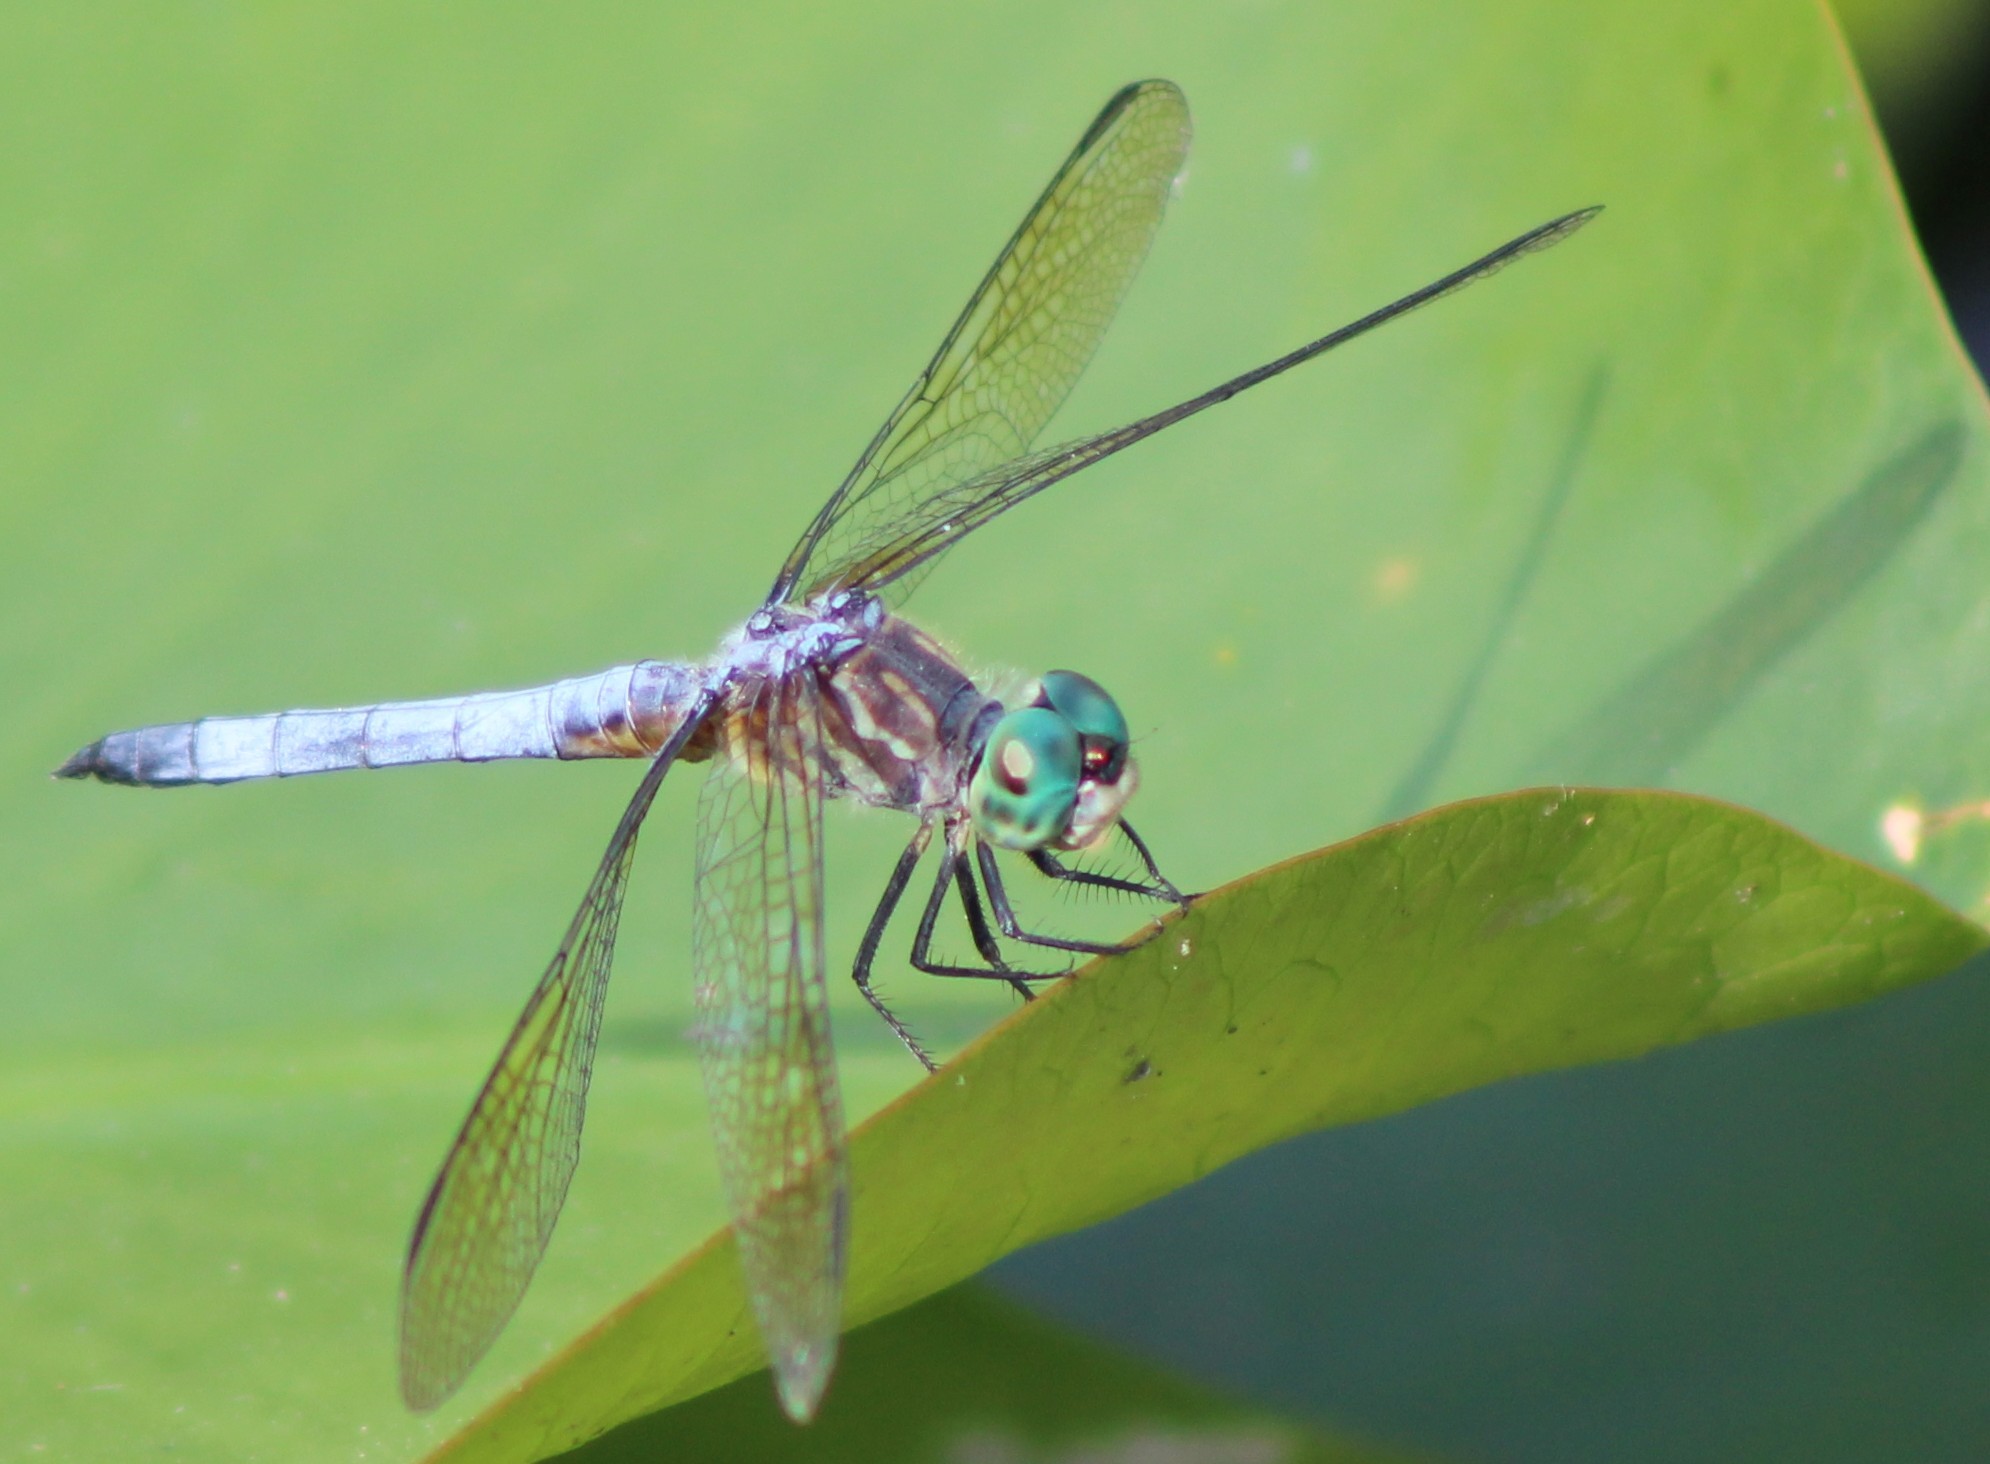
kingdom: Animalia
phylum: Arthropoda
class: Insecta
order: Odonata
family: Libellulidae
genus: Pachydiplax
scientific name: Pachydiplax longipennis
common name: Blue dasher
